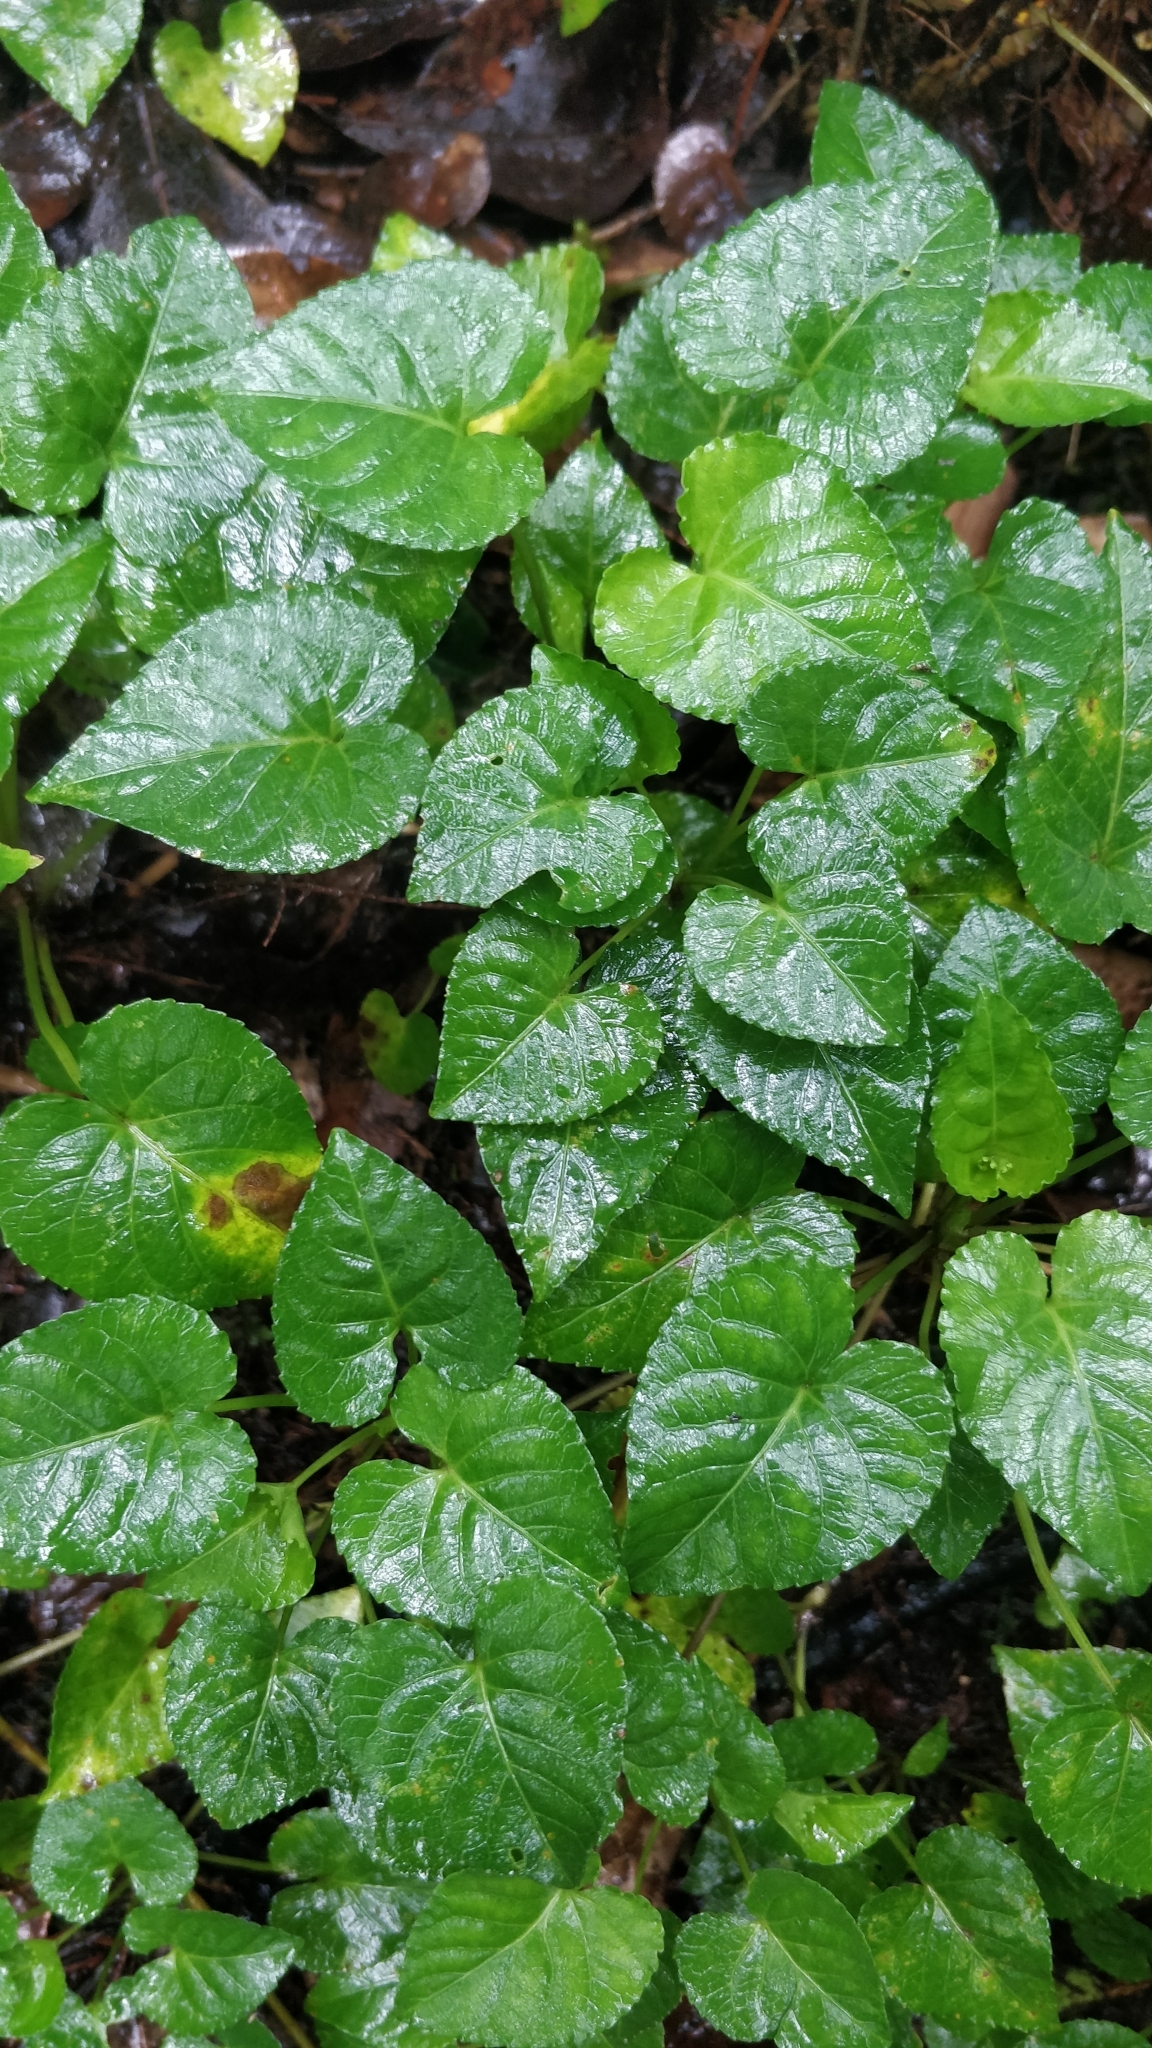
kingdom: Plantae
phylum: Tracheophyta
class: Magnoliopsida
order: Malpighiales
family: Violaceae
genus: Viola
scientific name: Viola anagae
